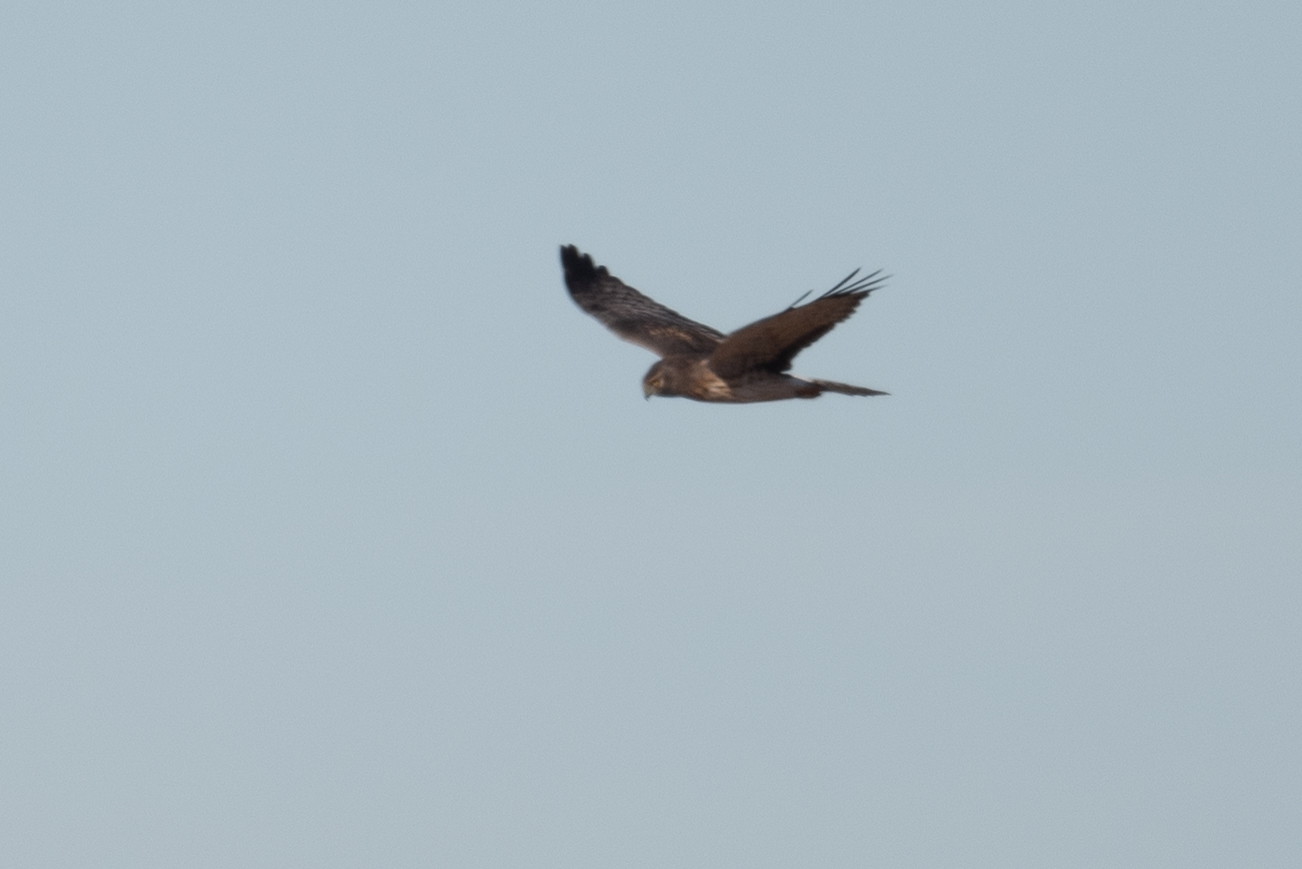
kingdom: Animalia
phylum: Chordata
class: Aves
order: Accipitriformes
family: Accipitridae
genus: Circus
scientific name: Circus cyaneus
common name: Hen harrier
